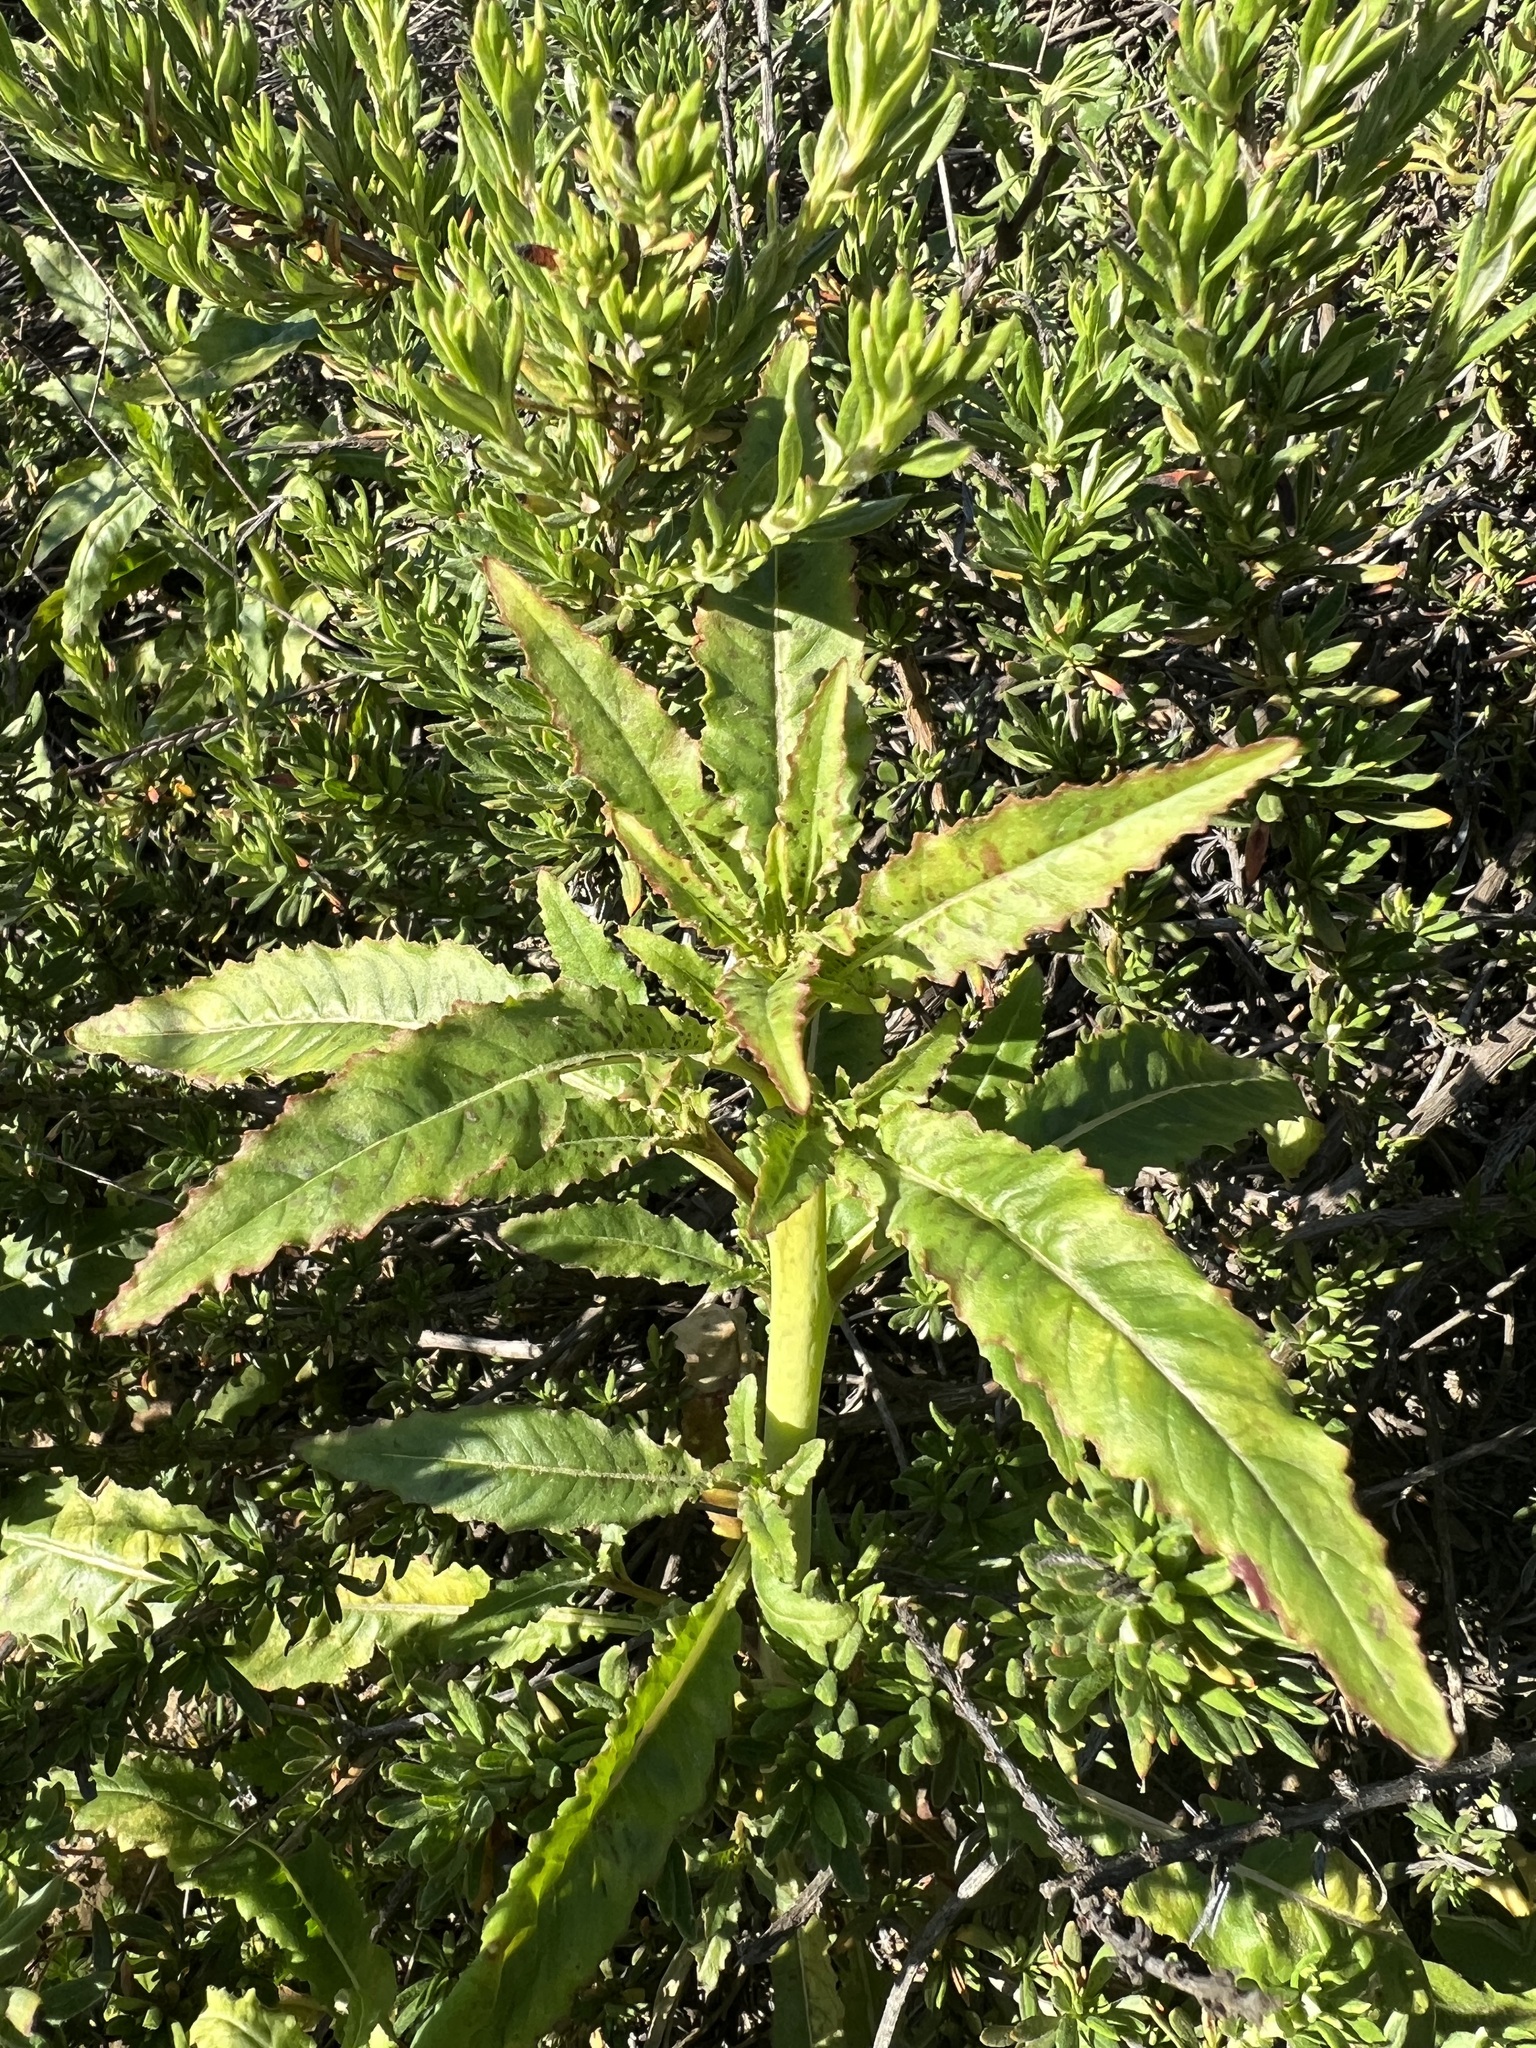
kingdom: Plantae
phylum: Tracheophyta
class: Magnoliopsida
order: Myrtales
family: Onagraceae
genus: Eulobus
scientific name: Eulobus californicus
